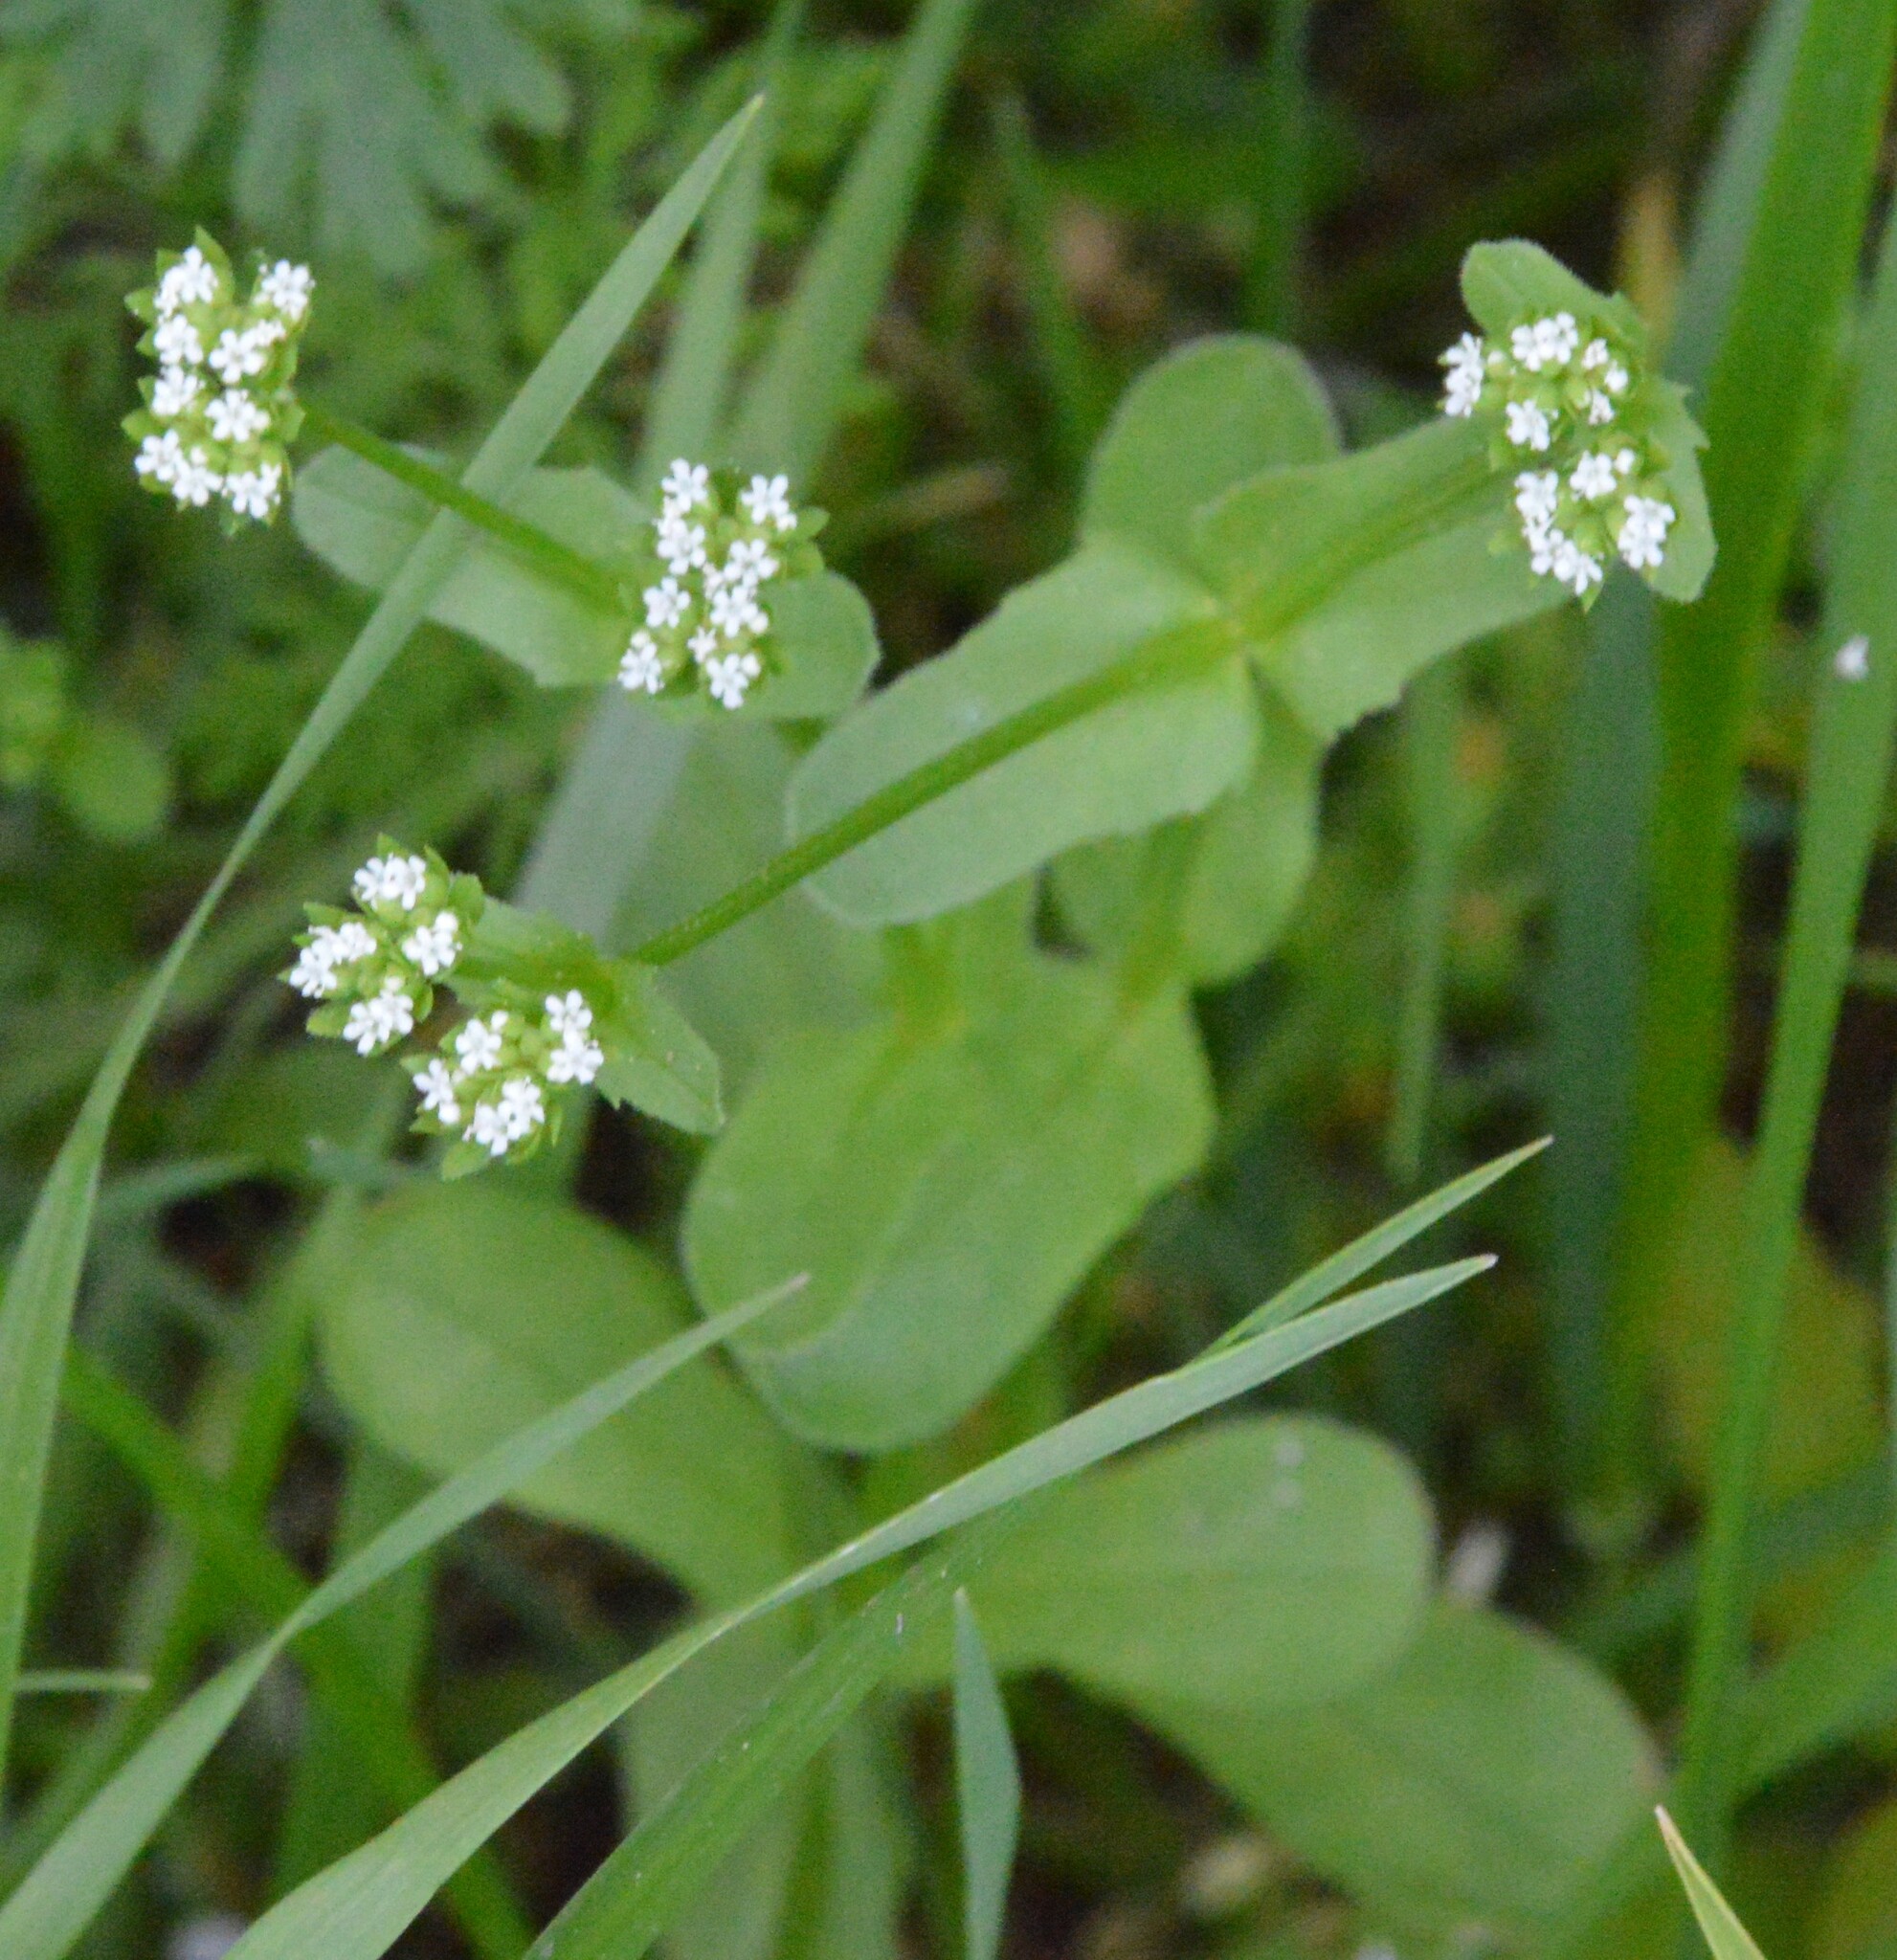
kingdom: Plantae
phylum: Tracheophyta
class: Magnoliopsida
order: Dipsacales
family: Caprifoliaceae
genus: Valerianella
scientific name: Valerianella radiata
